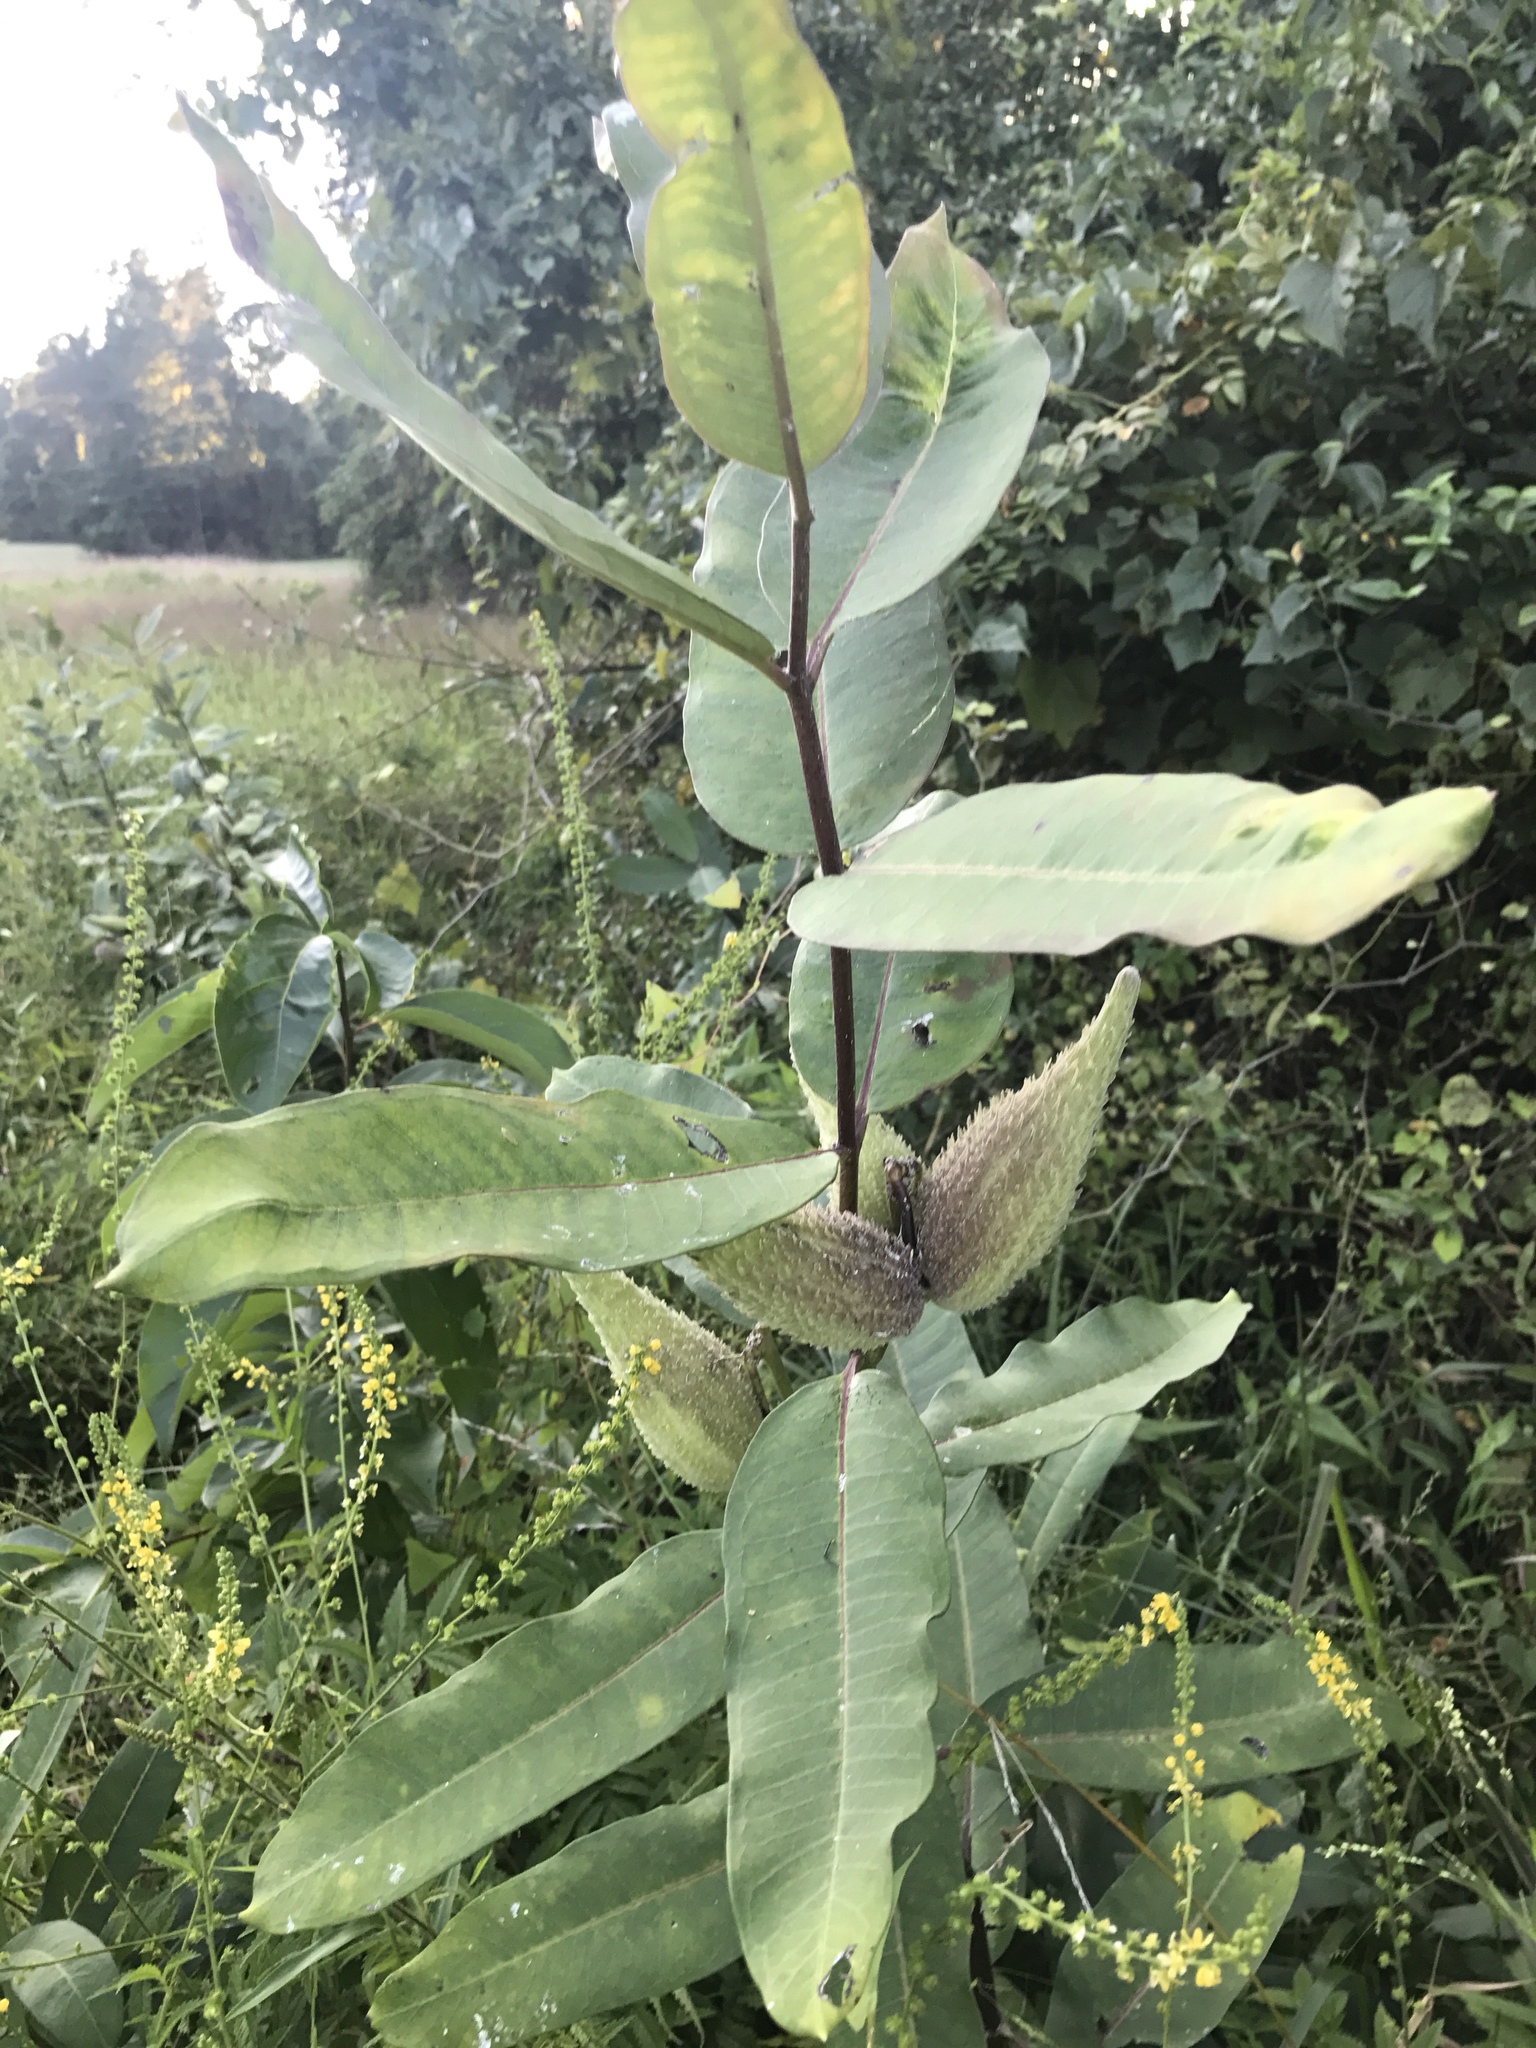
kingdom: Plantae
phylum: Tracheophyta
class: Magnoliopsida
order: Gentianales
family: Apocynaceae
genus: Asclepias
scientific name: Asclepias syriaca
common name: Common milkweed
